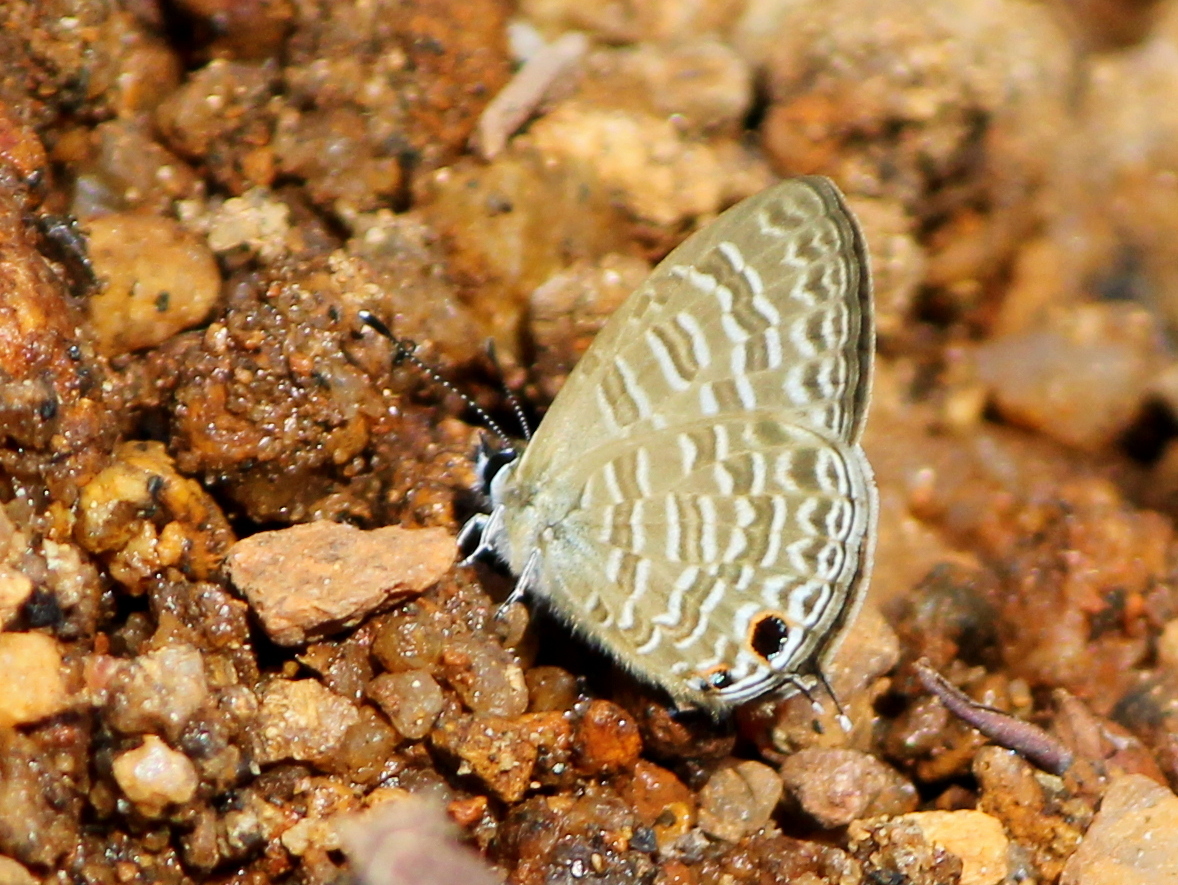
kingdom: Animalia
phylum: Arthropoda
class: Insecta
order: Lepidoptera
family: Lycaenidae
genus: Nacaduba
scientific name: Nacaduba sinhala
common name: Pale ceylon line blue
